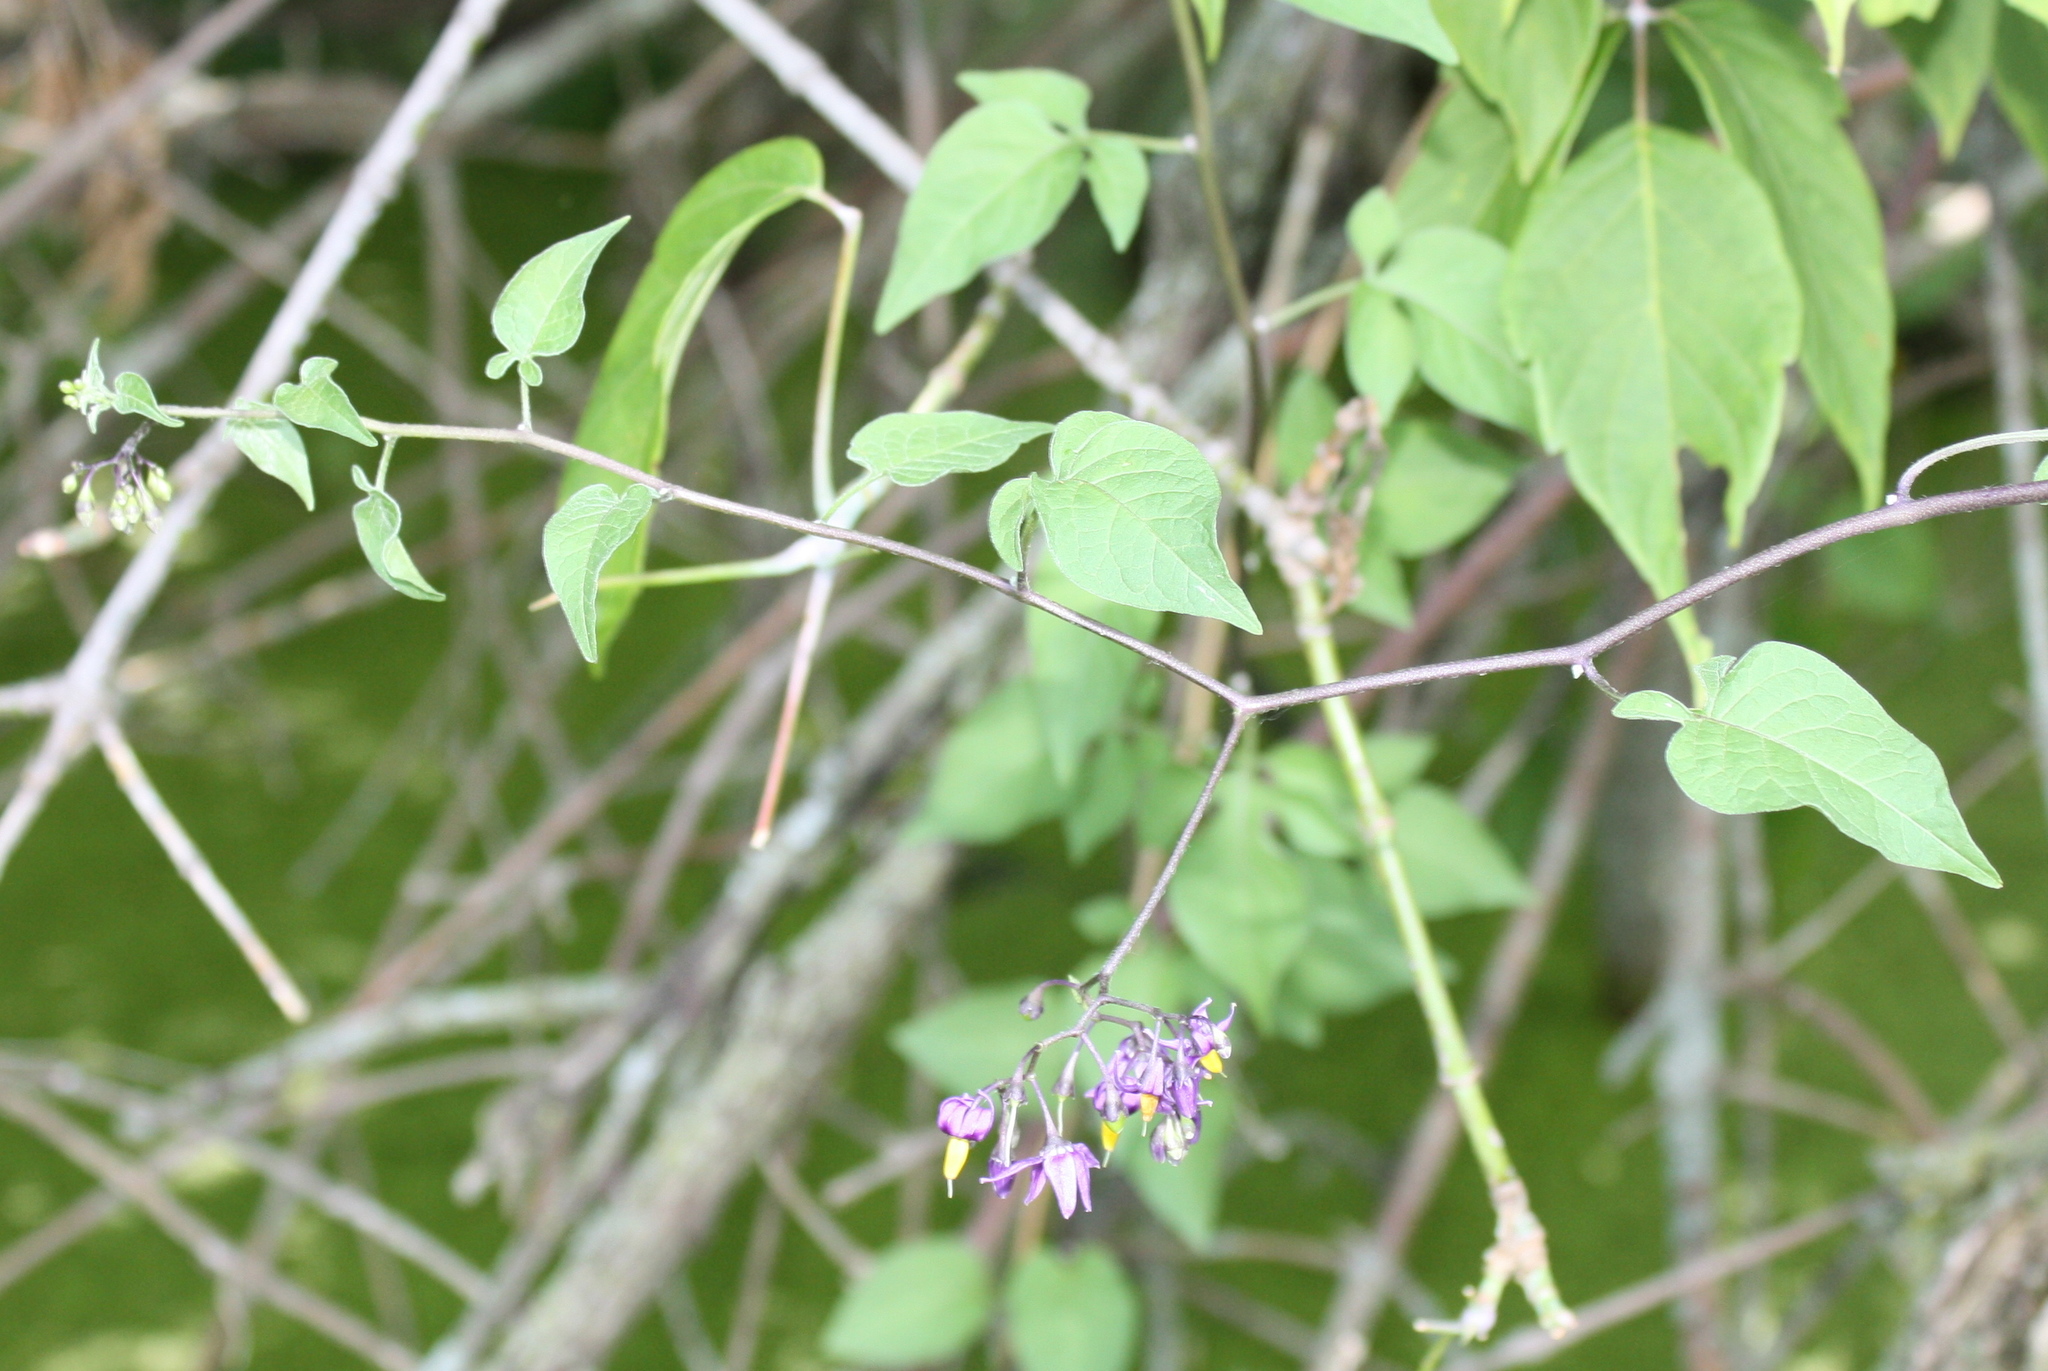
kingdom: Plantae
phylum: Tracheophyta
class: Magnoliopsida
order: Solanales
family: Solanaceae
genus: Solanum
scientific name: Solanum dulcamara
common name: Climbing nightshade
